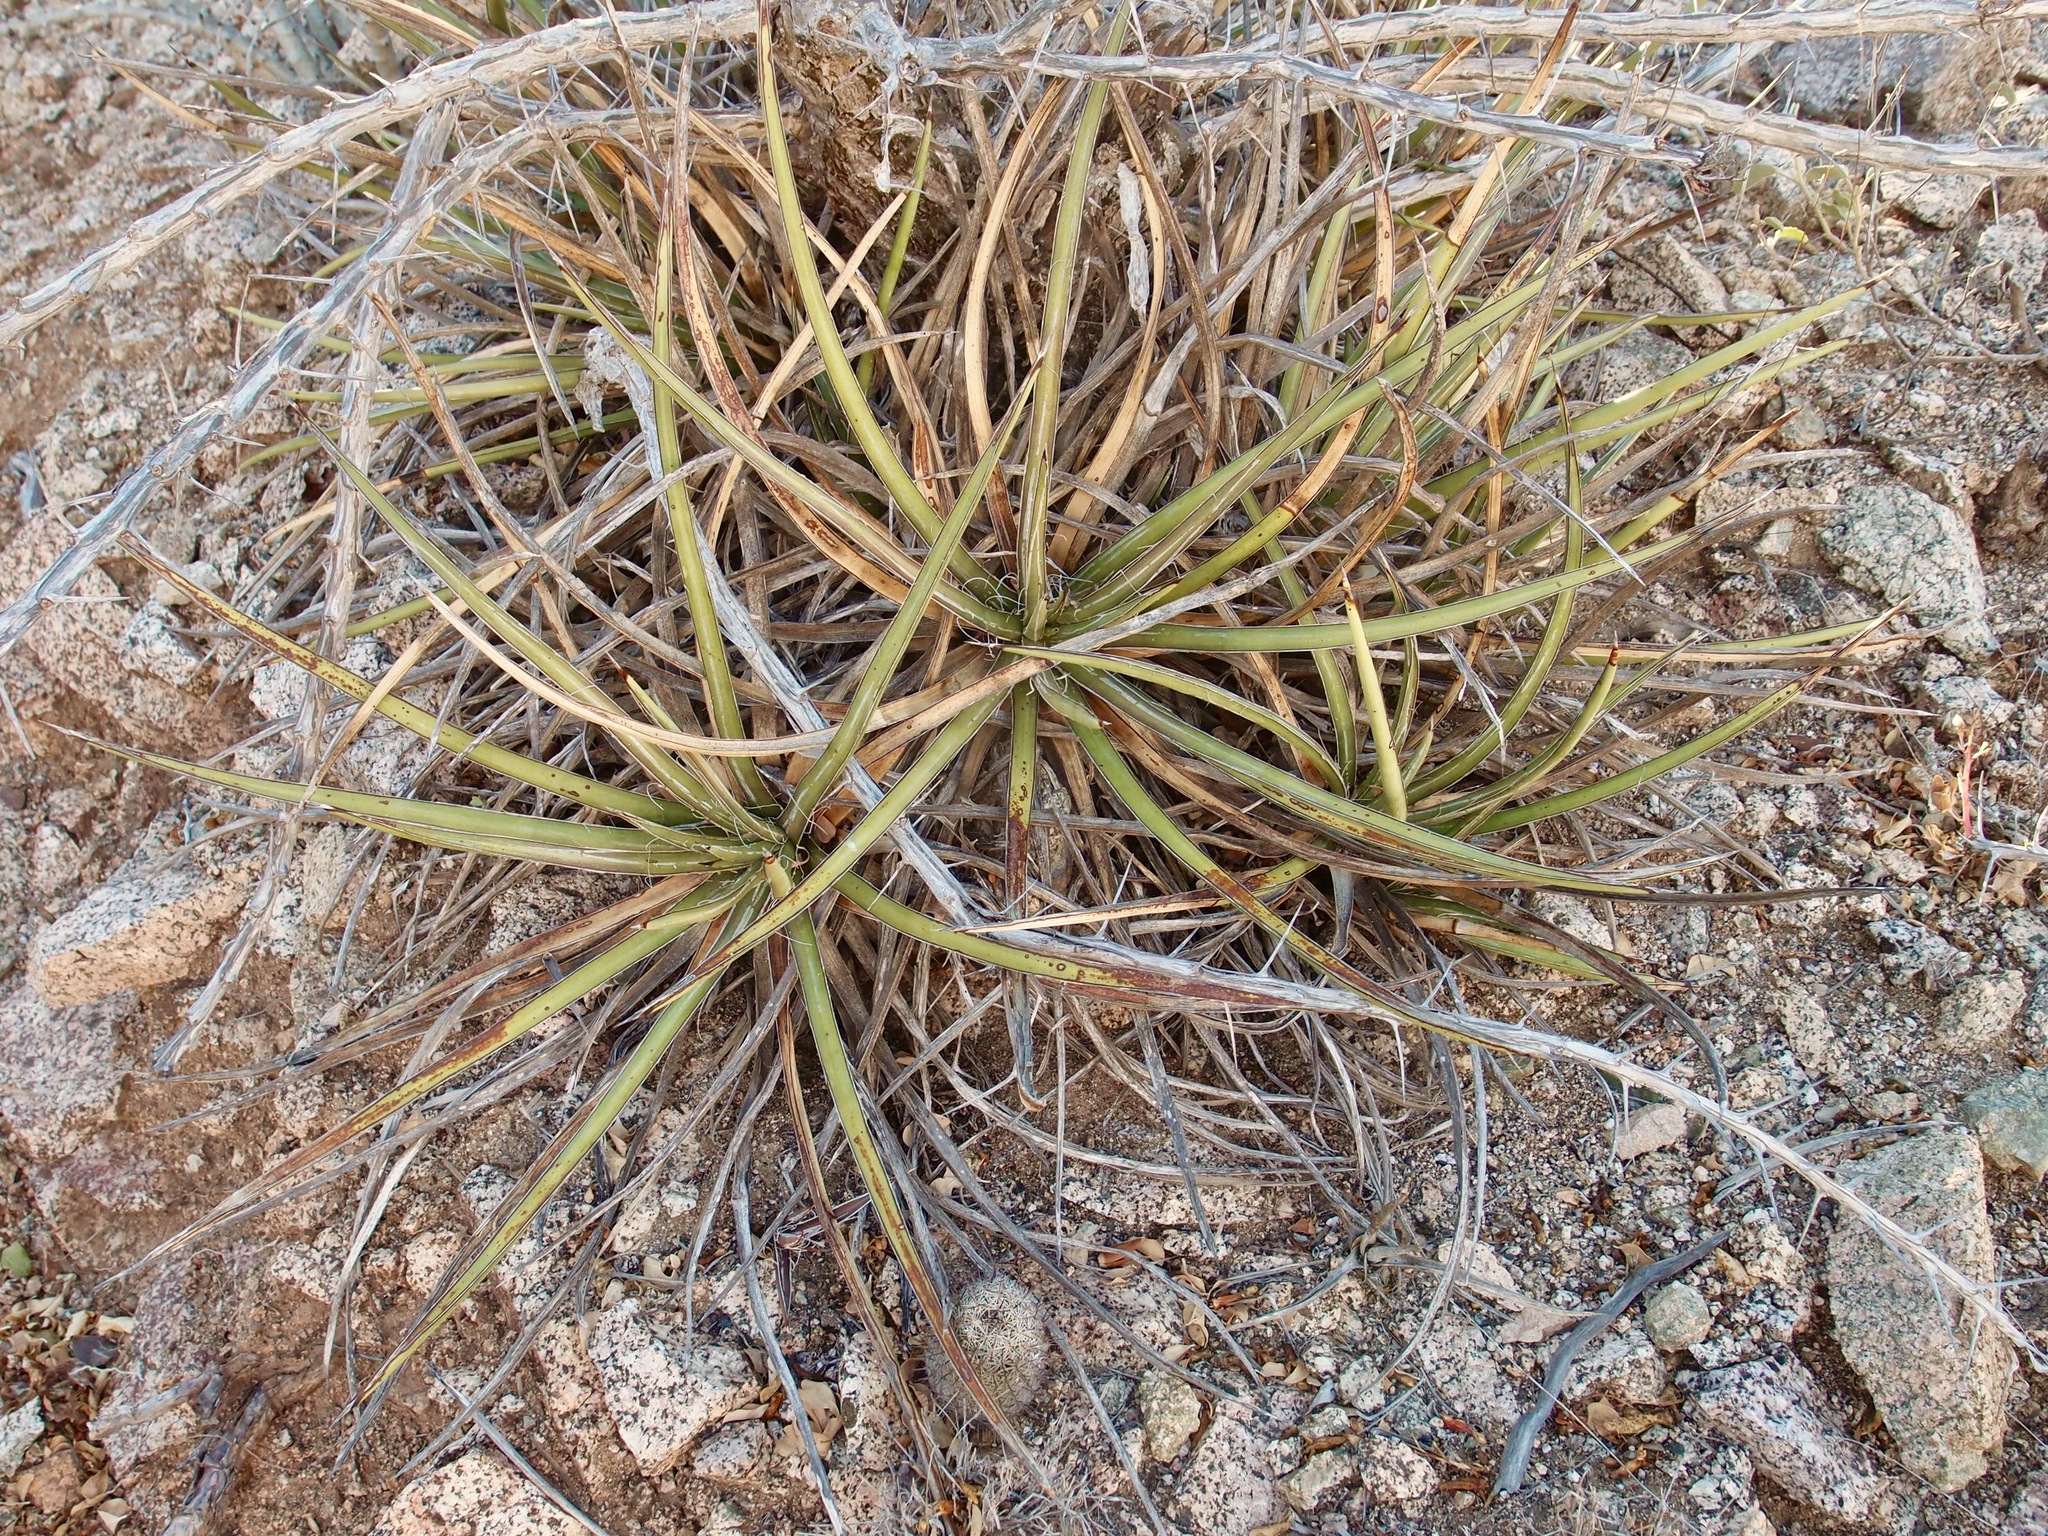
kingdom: Plantae
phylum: Tracheophyta
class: Liliopsida
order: Asparagales
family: Asparagaceae
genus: Agave
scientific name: Agave felgeri
